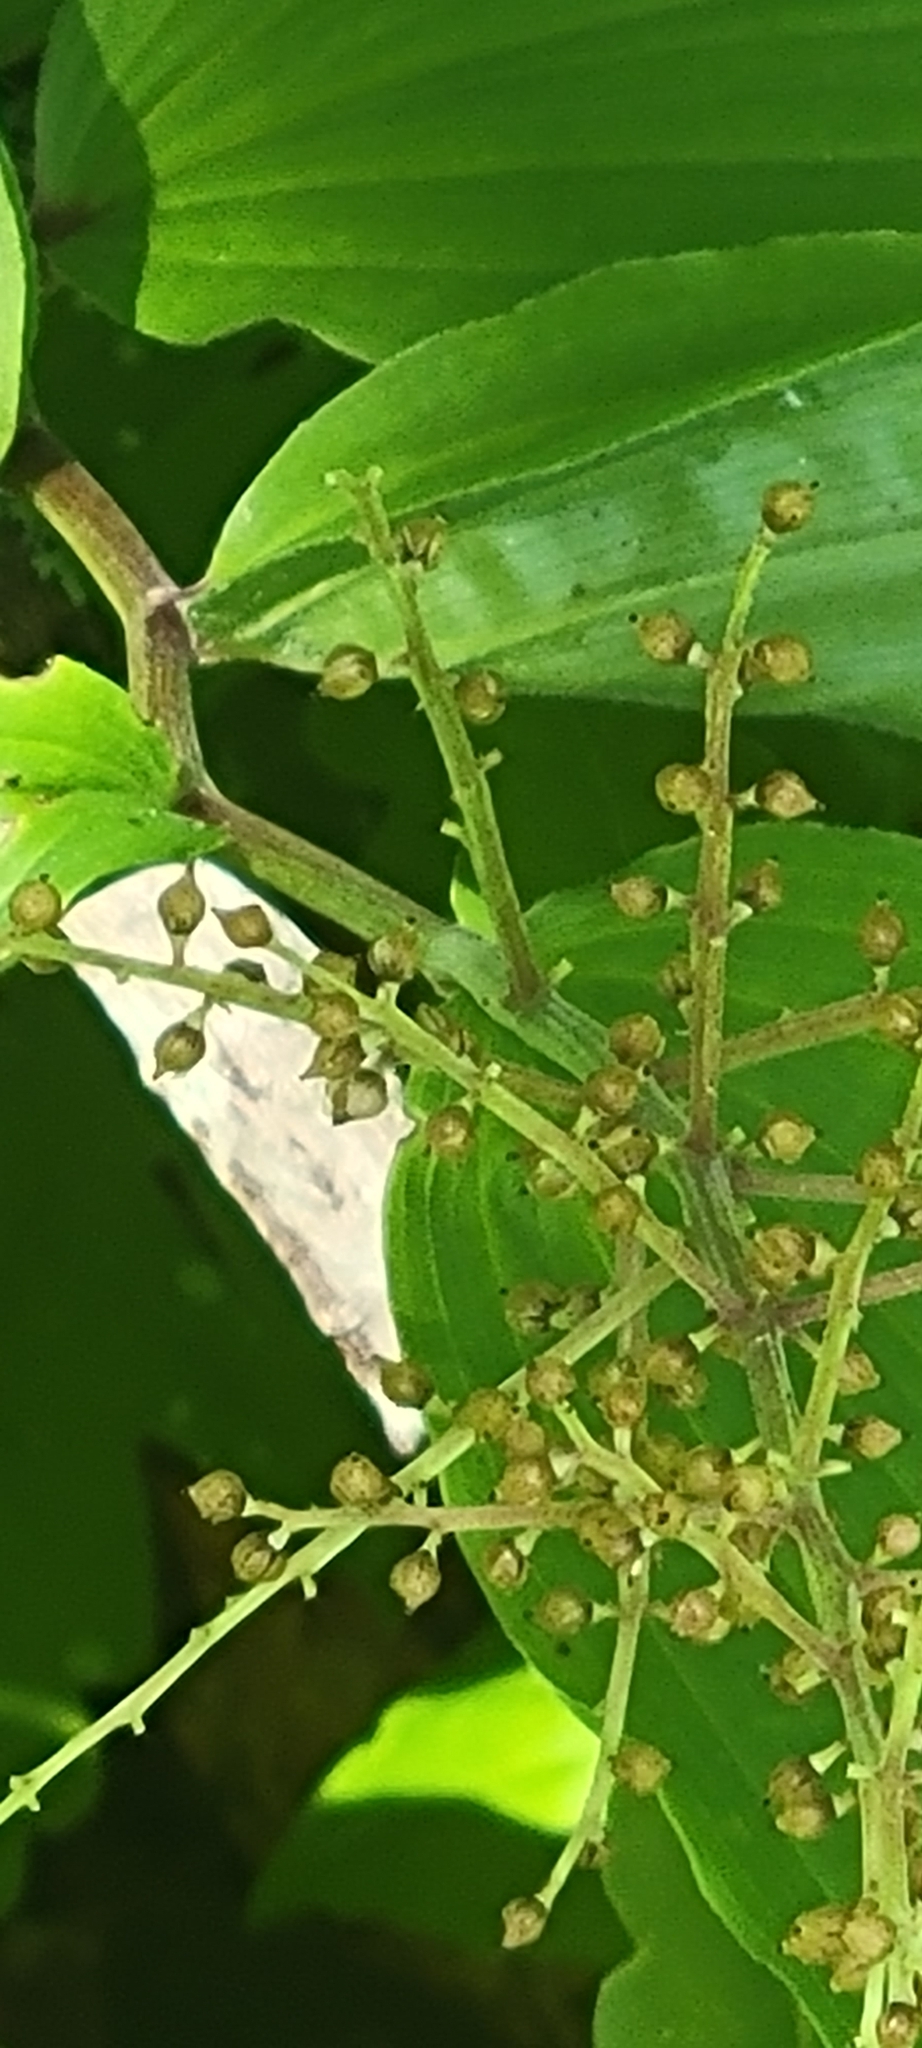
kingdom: Plantae
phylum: Tracheophyta
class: Liliopsida
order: Asparagales
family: Asparagaceae
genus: Maianthemum
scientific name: Maianthemum racemosum
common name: False spikenard
